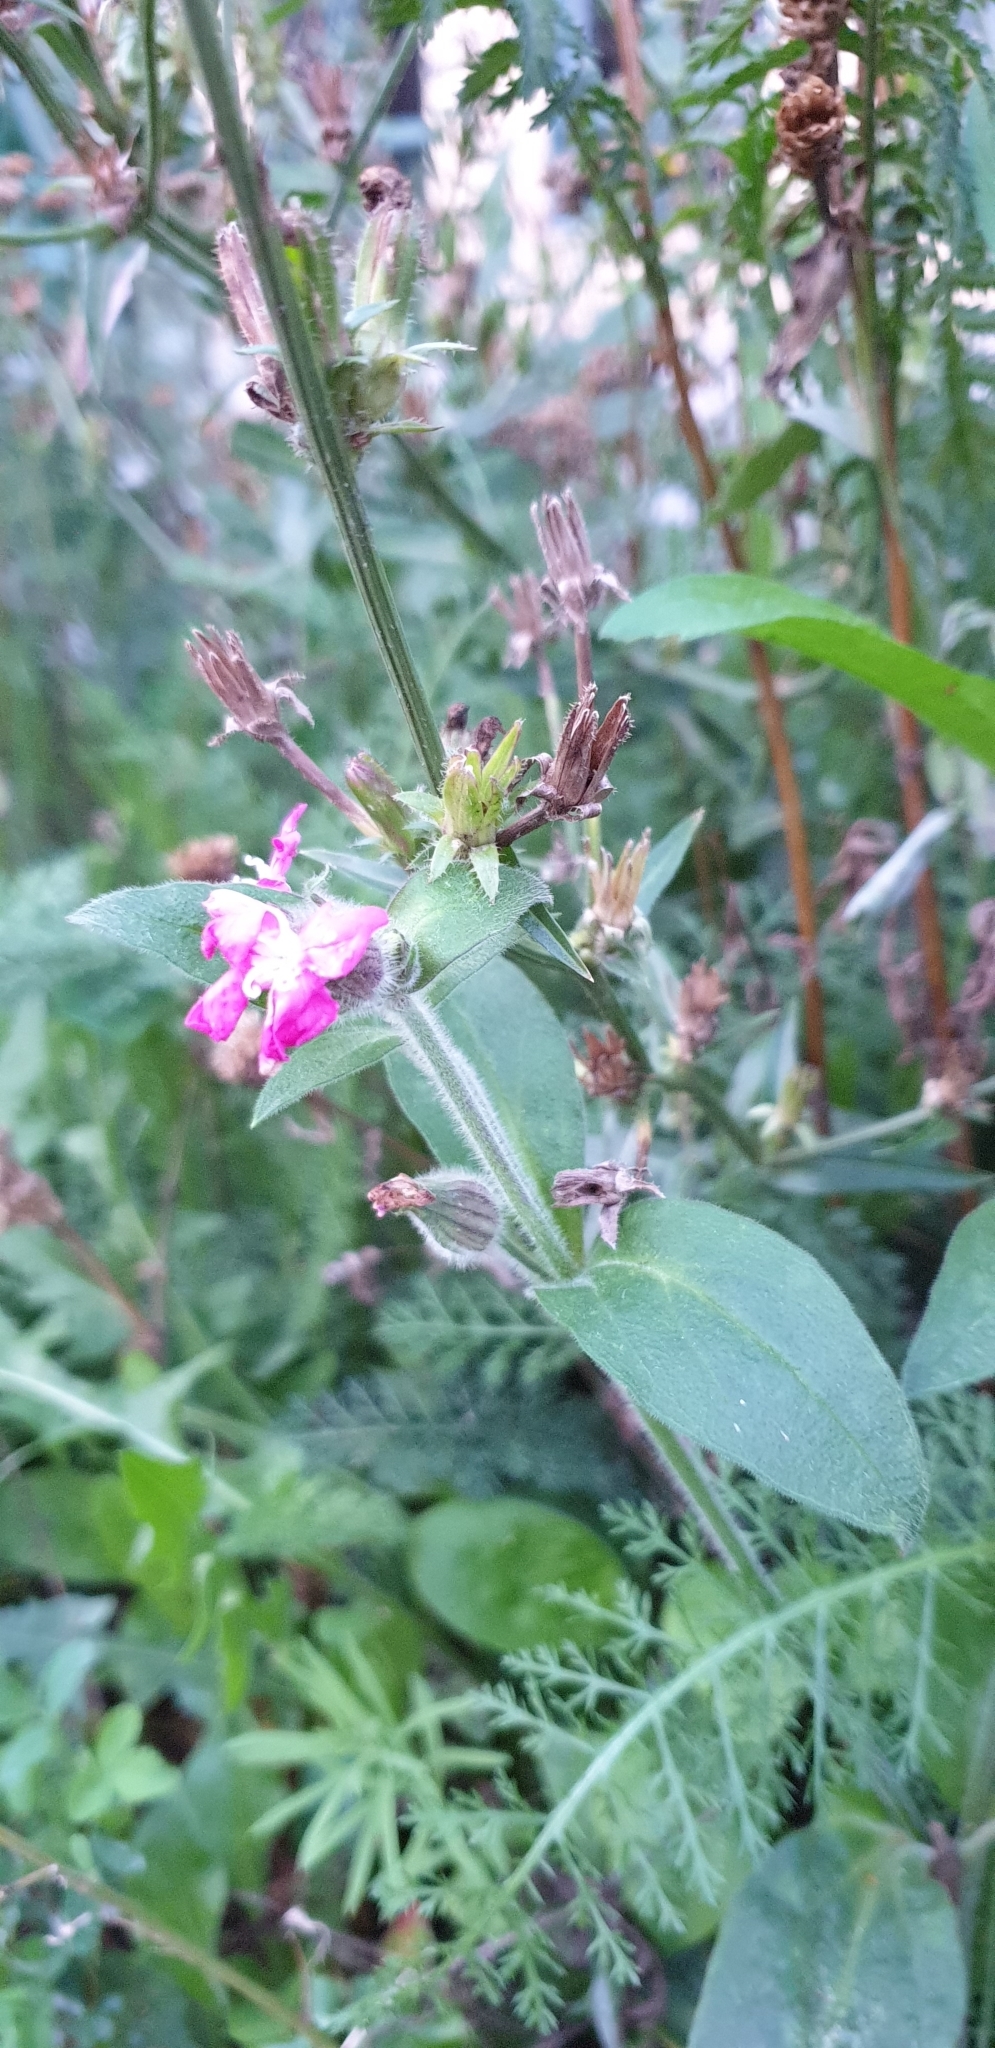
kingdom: Plantae
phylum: Tracheophyta
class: Magnoliopsida
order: Caryophyllales
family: Caryophyllaceae
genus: Silene
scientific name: Silene dioica
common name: Red campion
